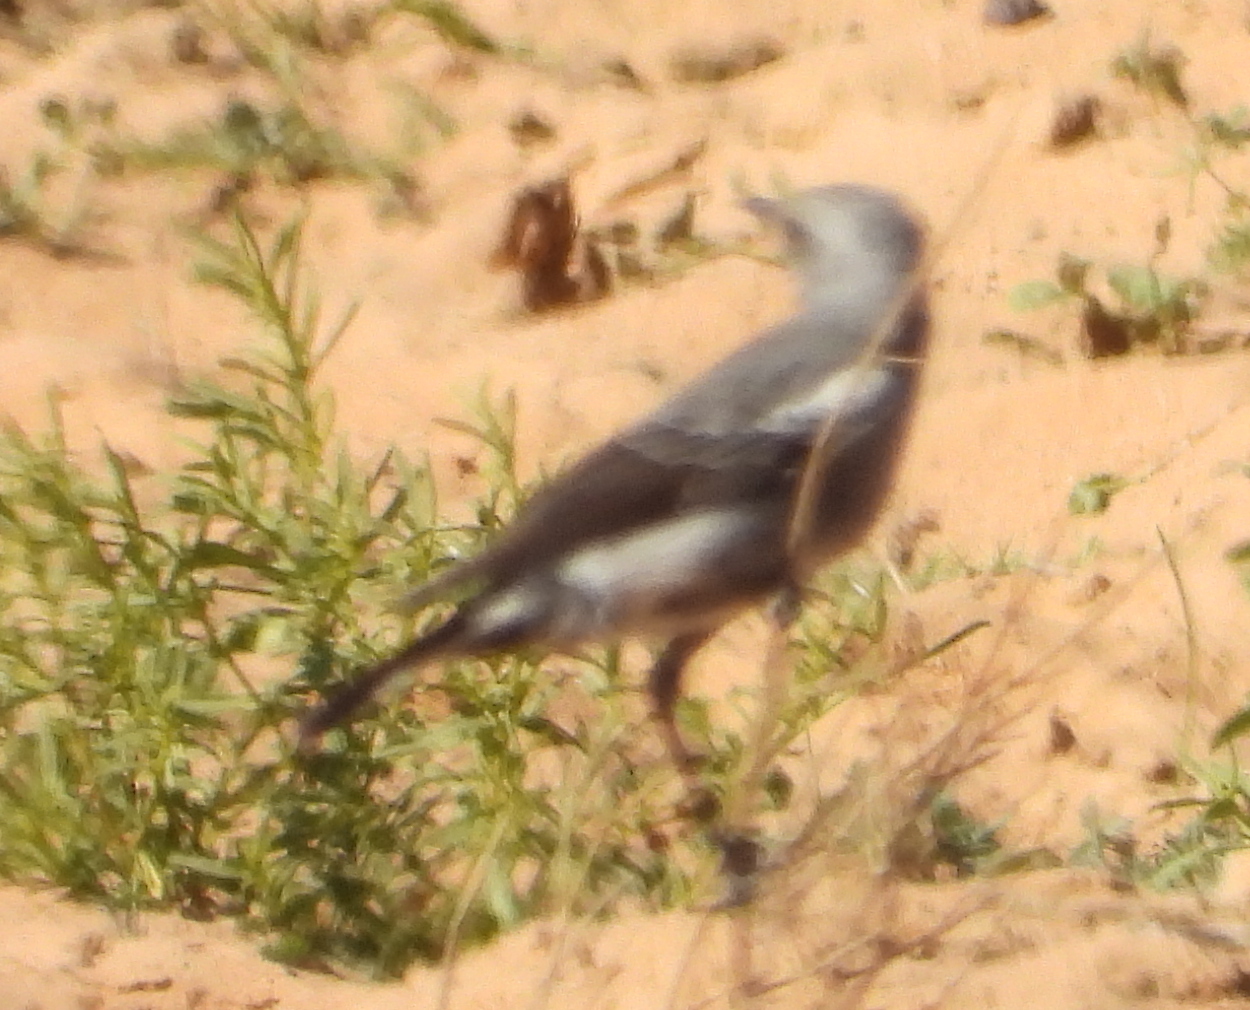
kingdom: Animalia
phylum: Chordata
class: Aves
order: Passeriformes
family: Muscicapidae
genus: Oenanthe
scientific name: Oenanthe monticola
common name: Mountain wheatear
